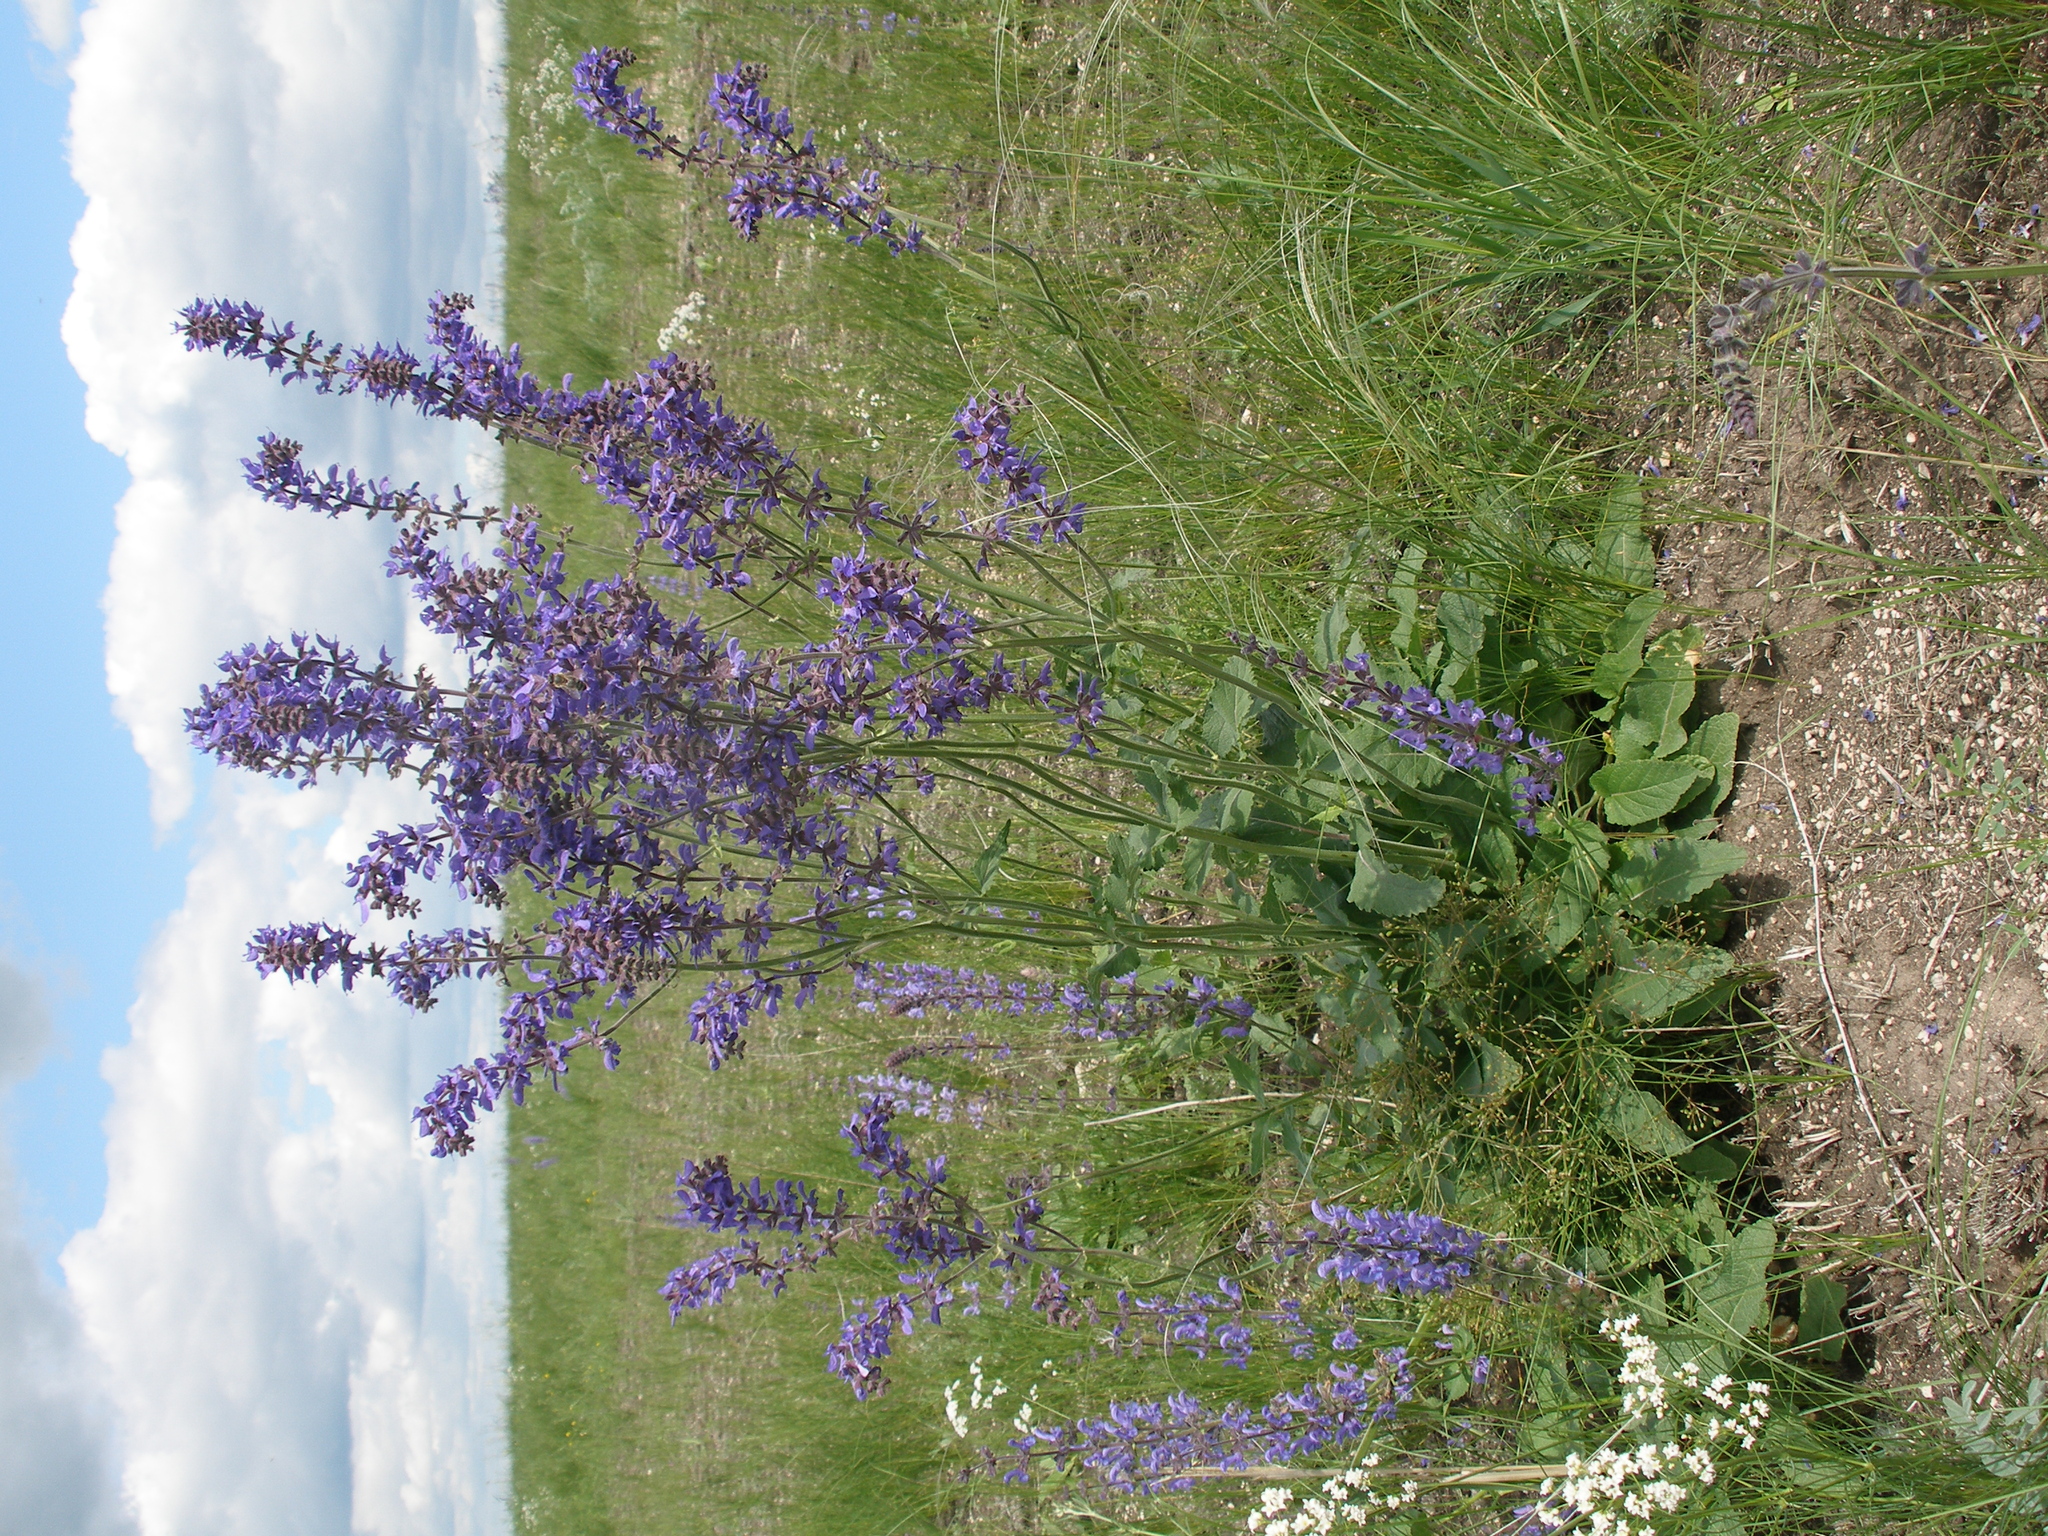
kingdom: Plantae
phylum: Tracheophyta
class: Magnoliopsida
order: Lamiales
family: Lamiaceae
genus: Salvia
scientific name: Salvia dumetorum
